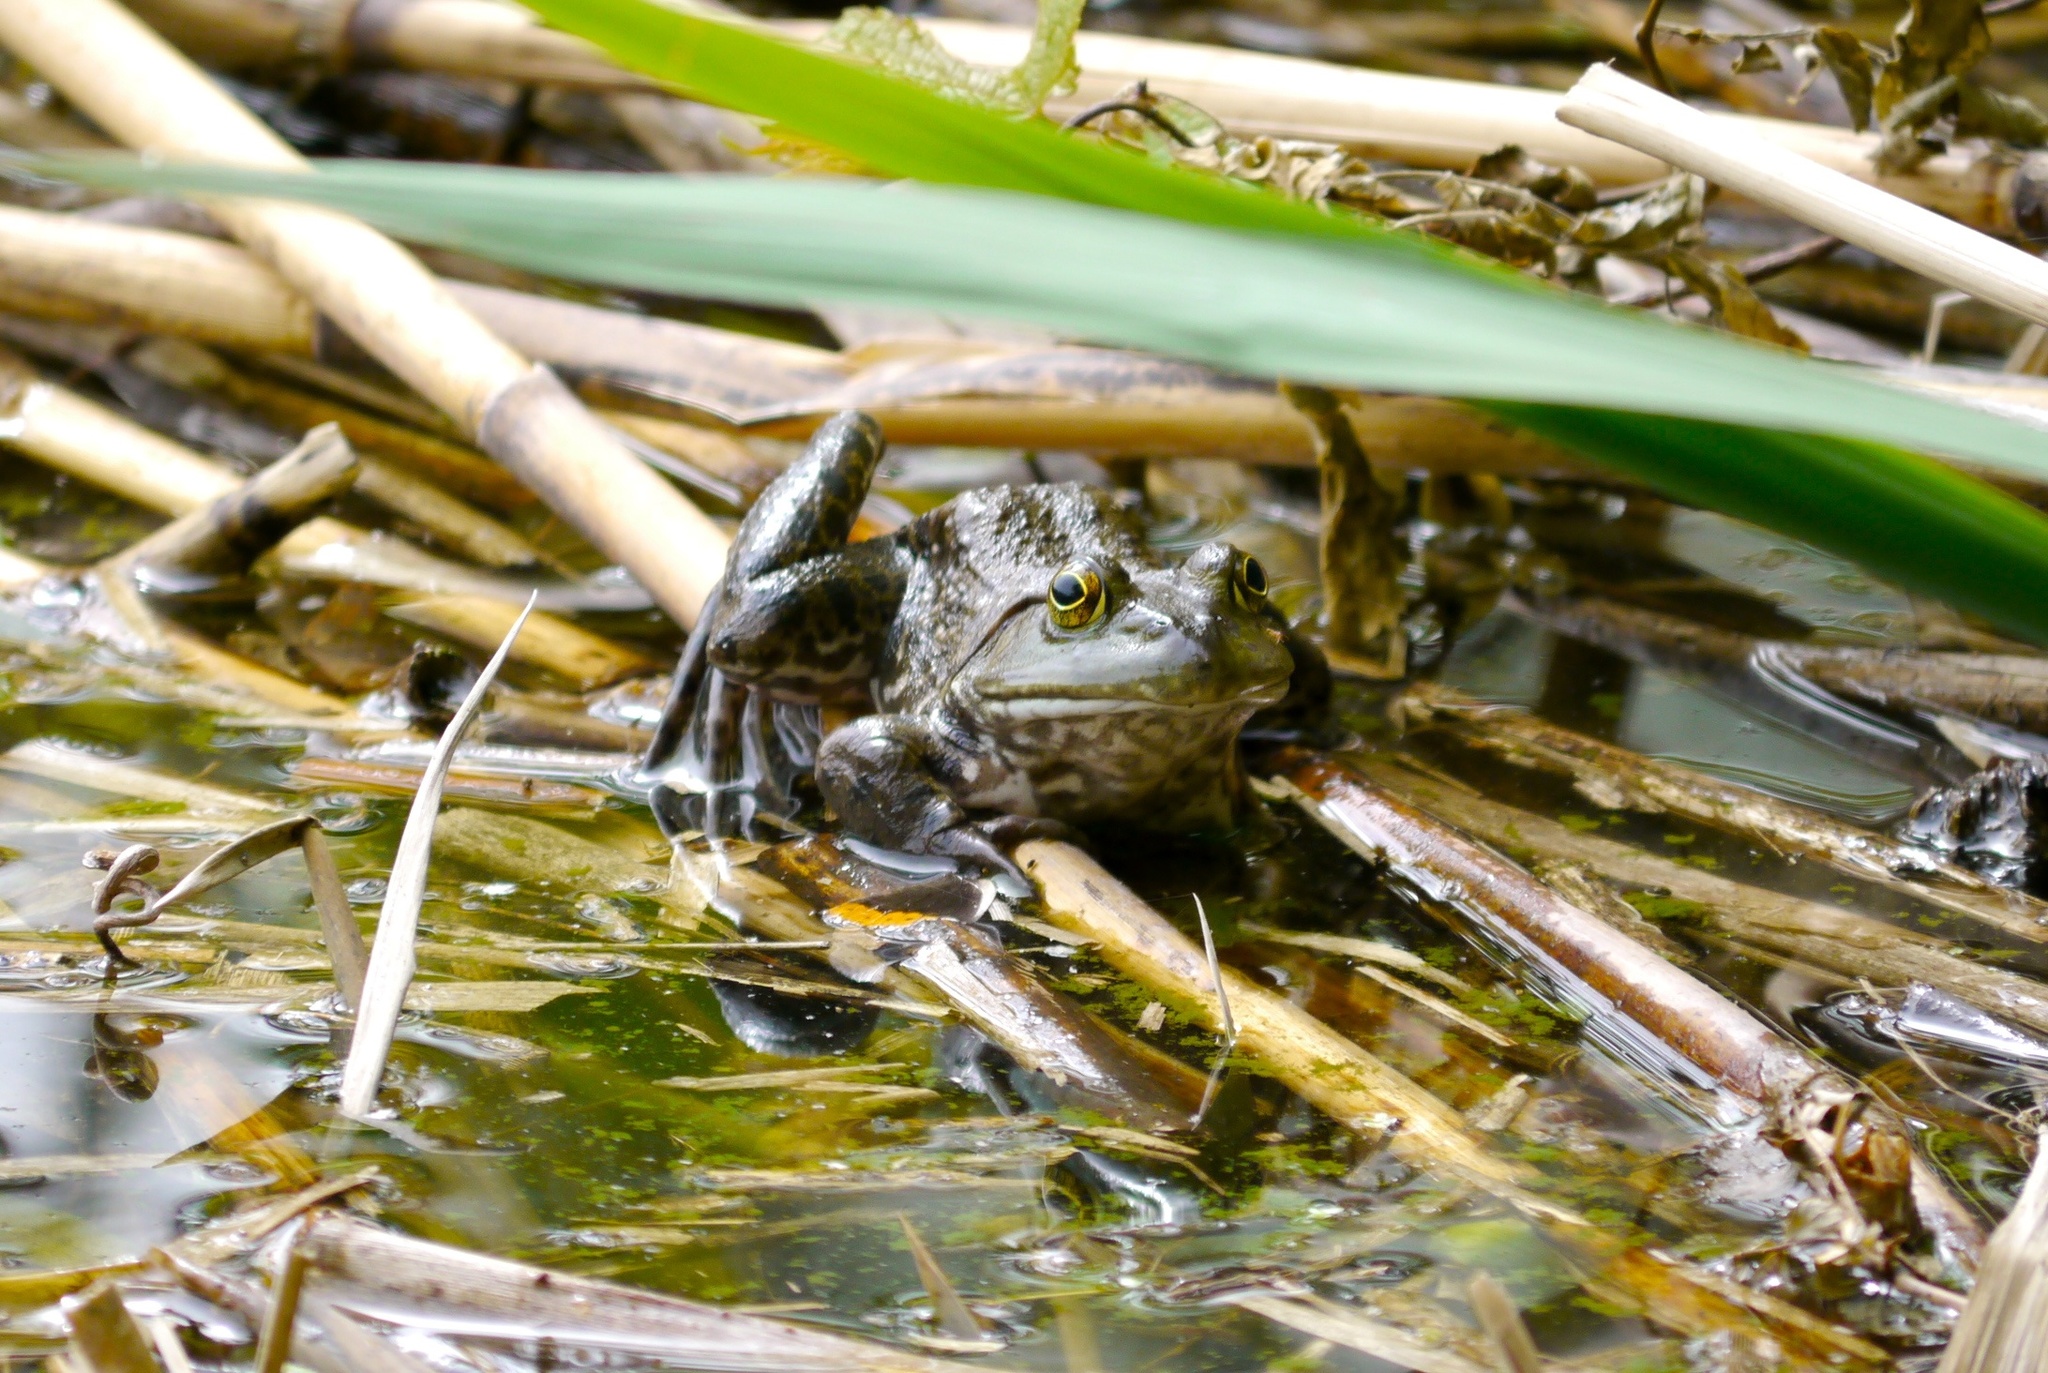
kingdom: Animalia
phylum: Chordata
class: Amphibia
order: Anura
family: Ranidae
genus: Lithobates
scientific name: Lithobates catesbeianus
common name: American bullfrog
